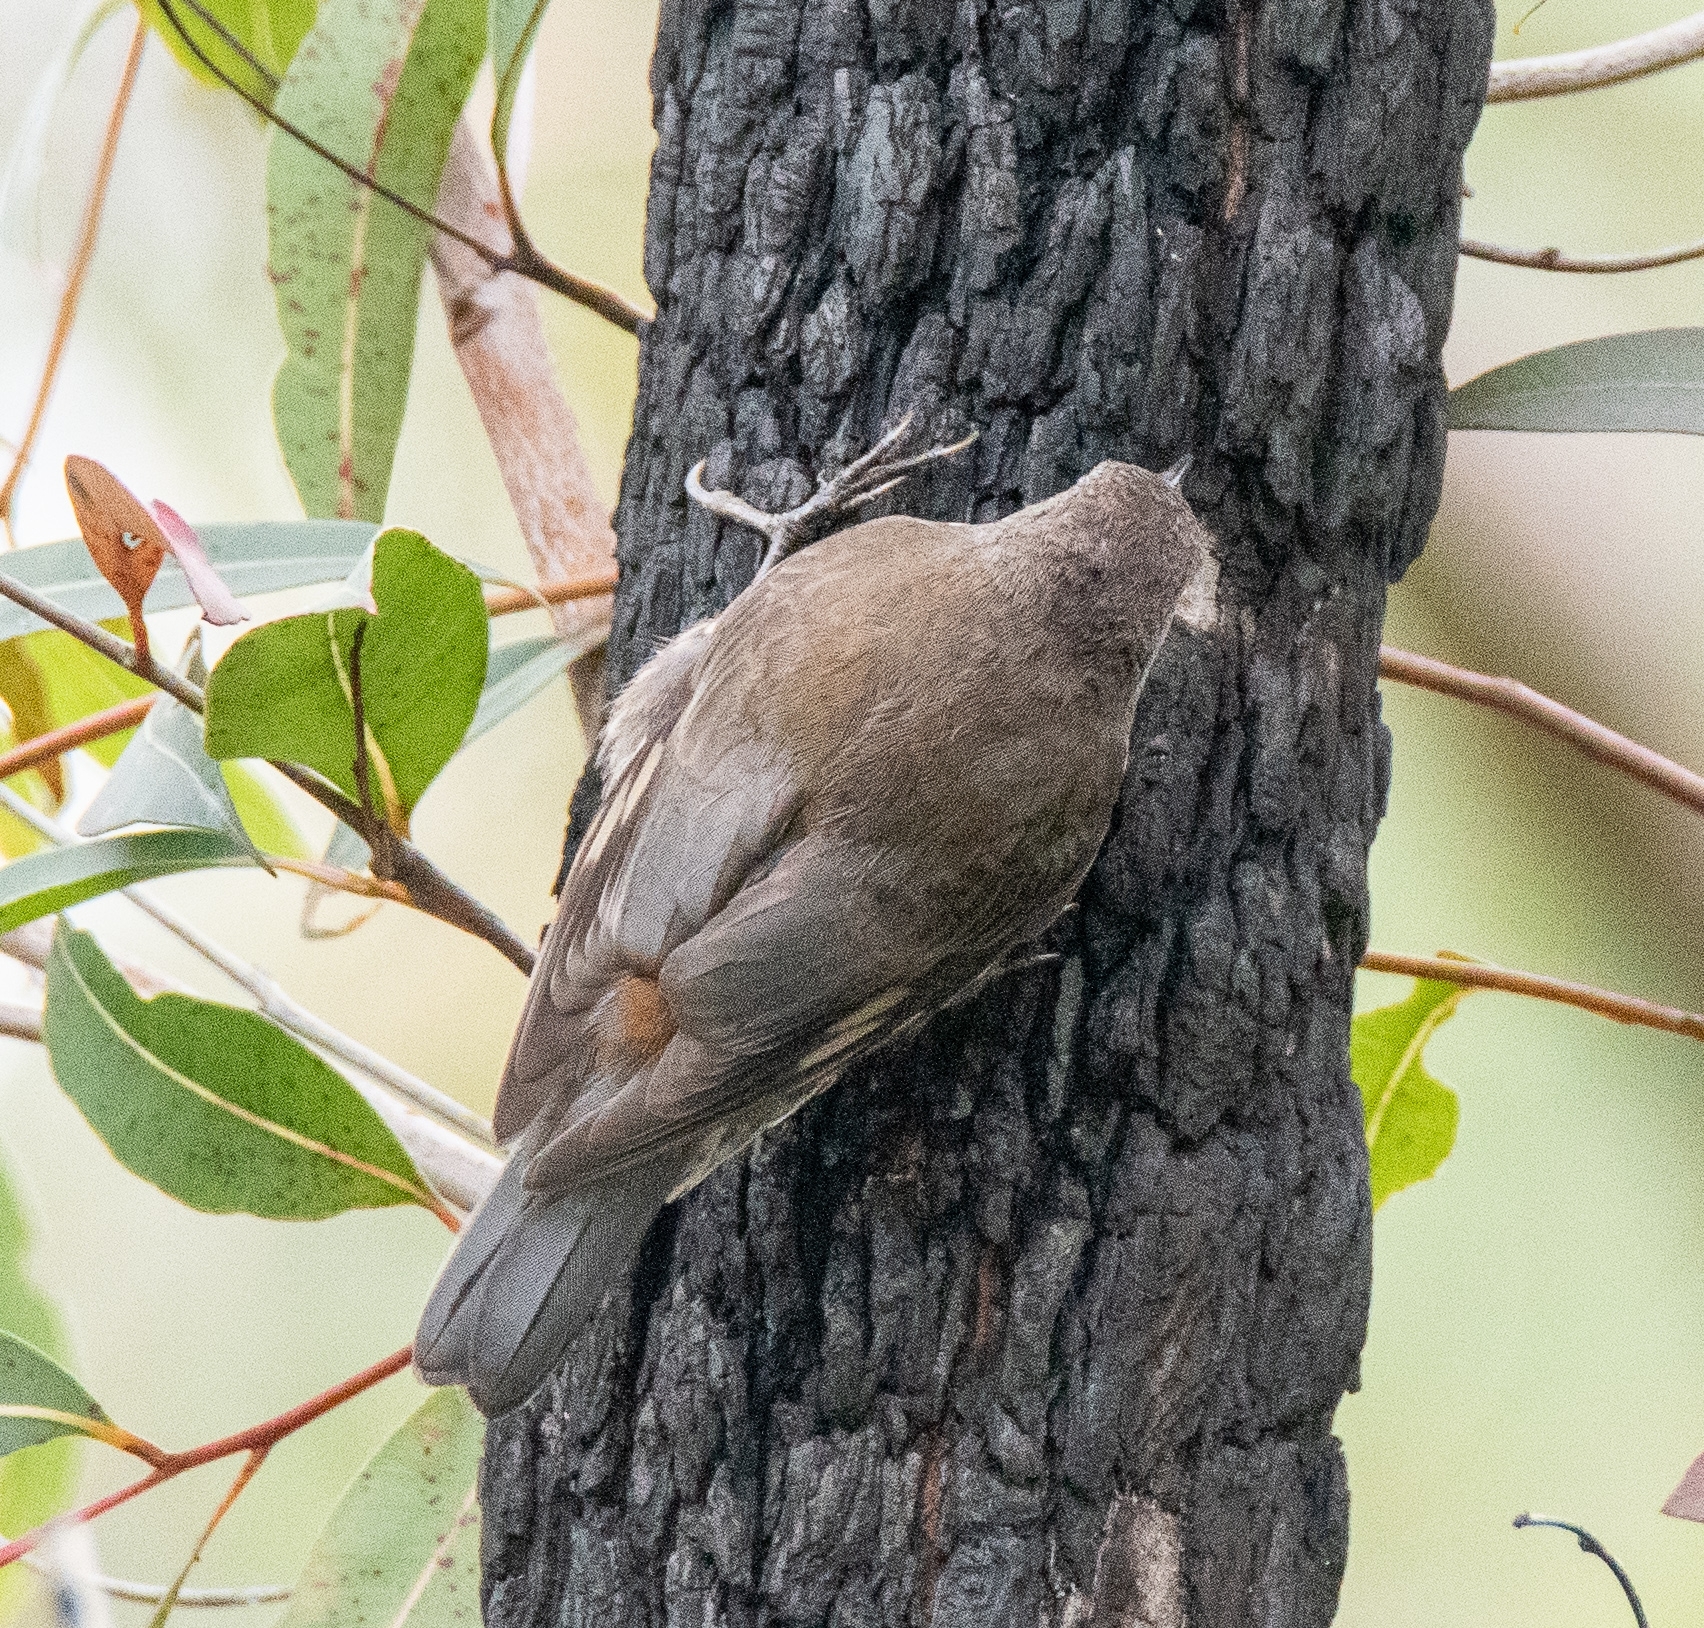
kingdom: Animalia
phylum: Chordata
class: Aves
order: Passeriformes
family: Climacteridae
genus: Cormobates
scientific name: Cormobates leucophaea
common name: White-throated treecreeper
